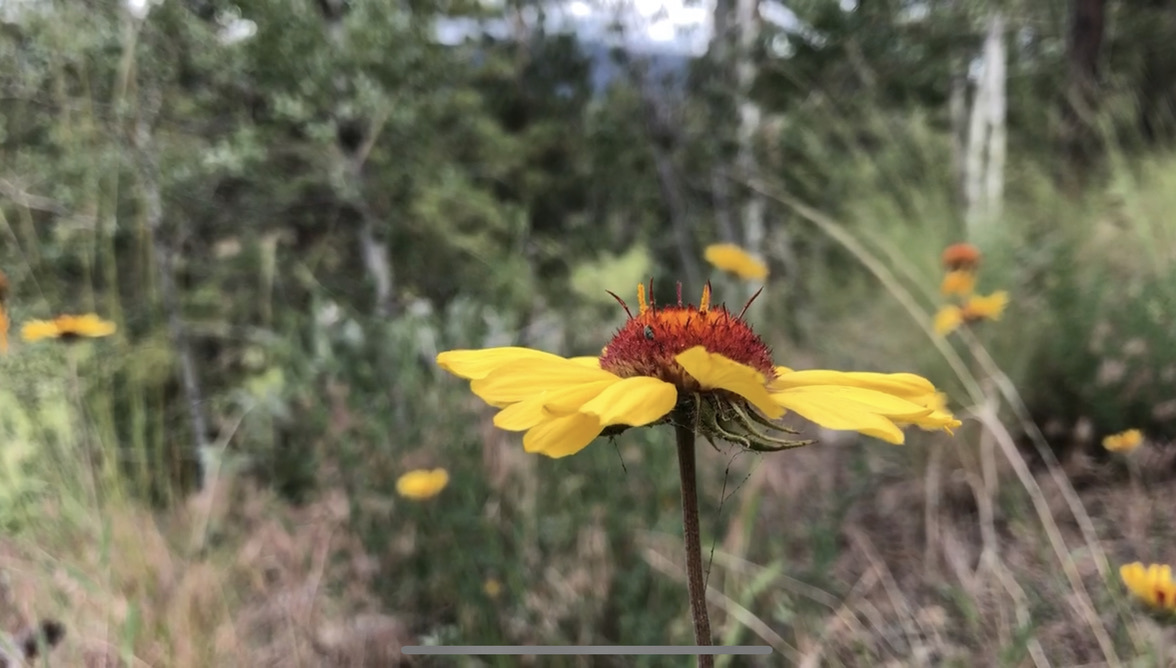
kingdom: Plantae
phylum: Tracheophyta
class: Magnoliopsida
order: Asterales
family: Asteraceae
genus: Gaillardia
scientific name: Gaillardia aristata
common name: Blanket-flower
